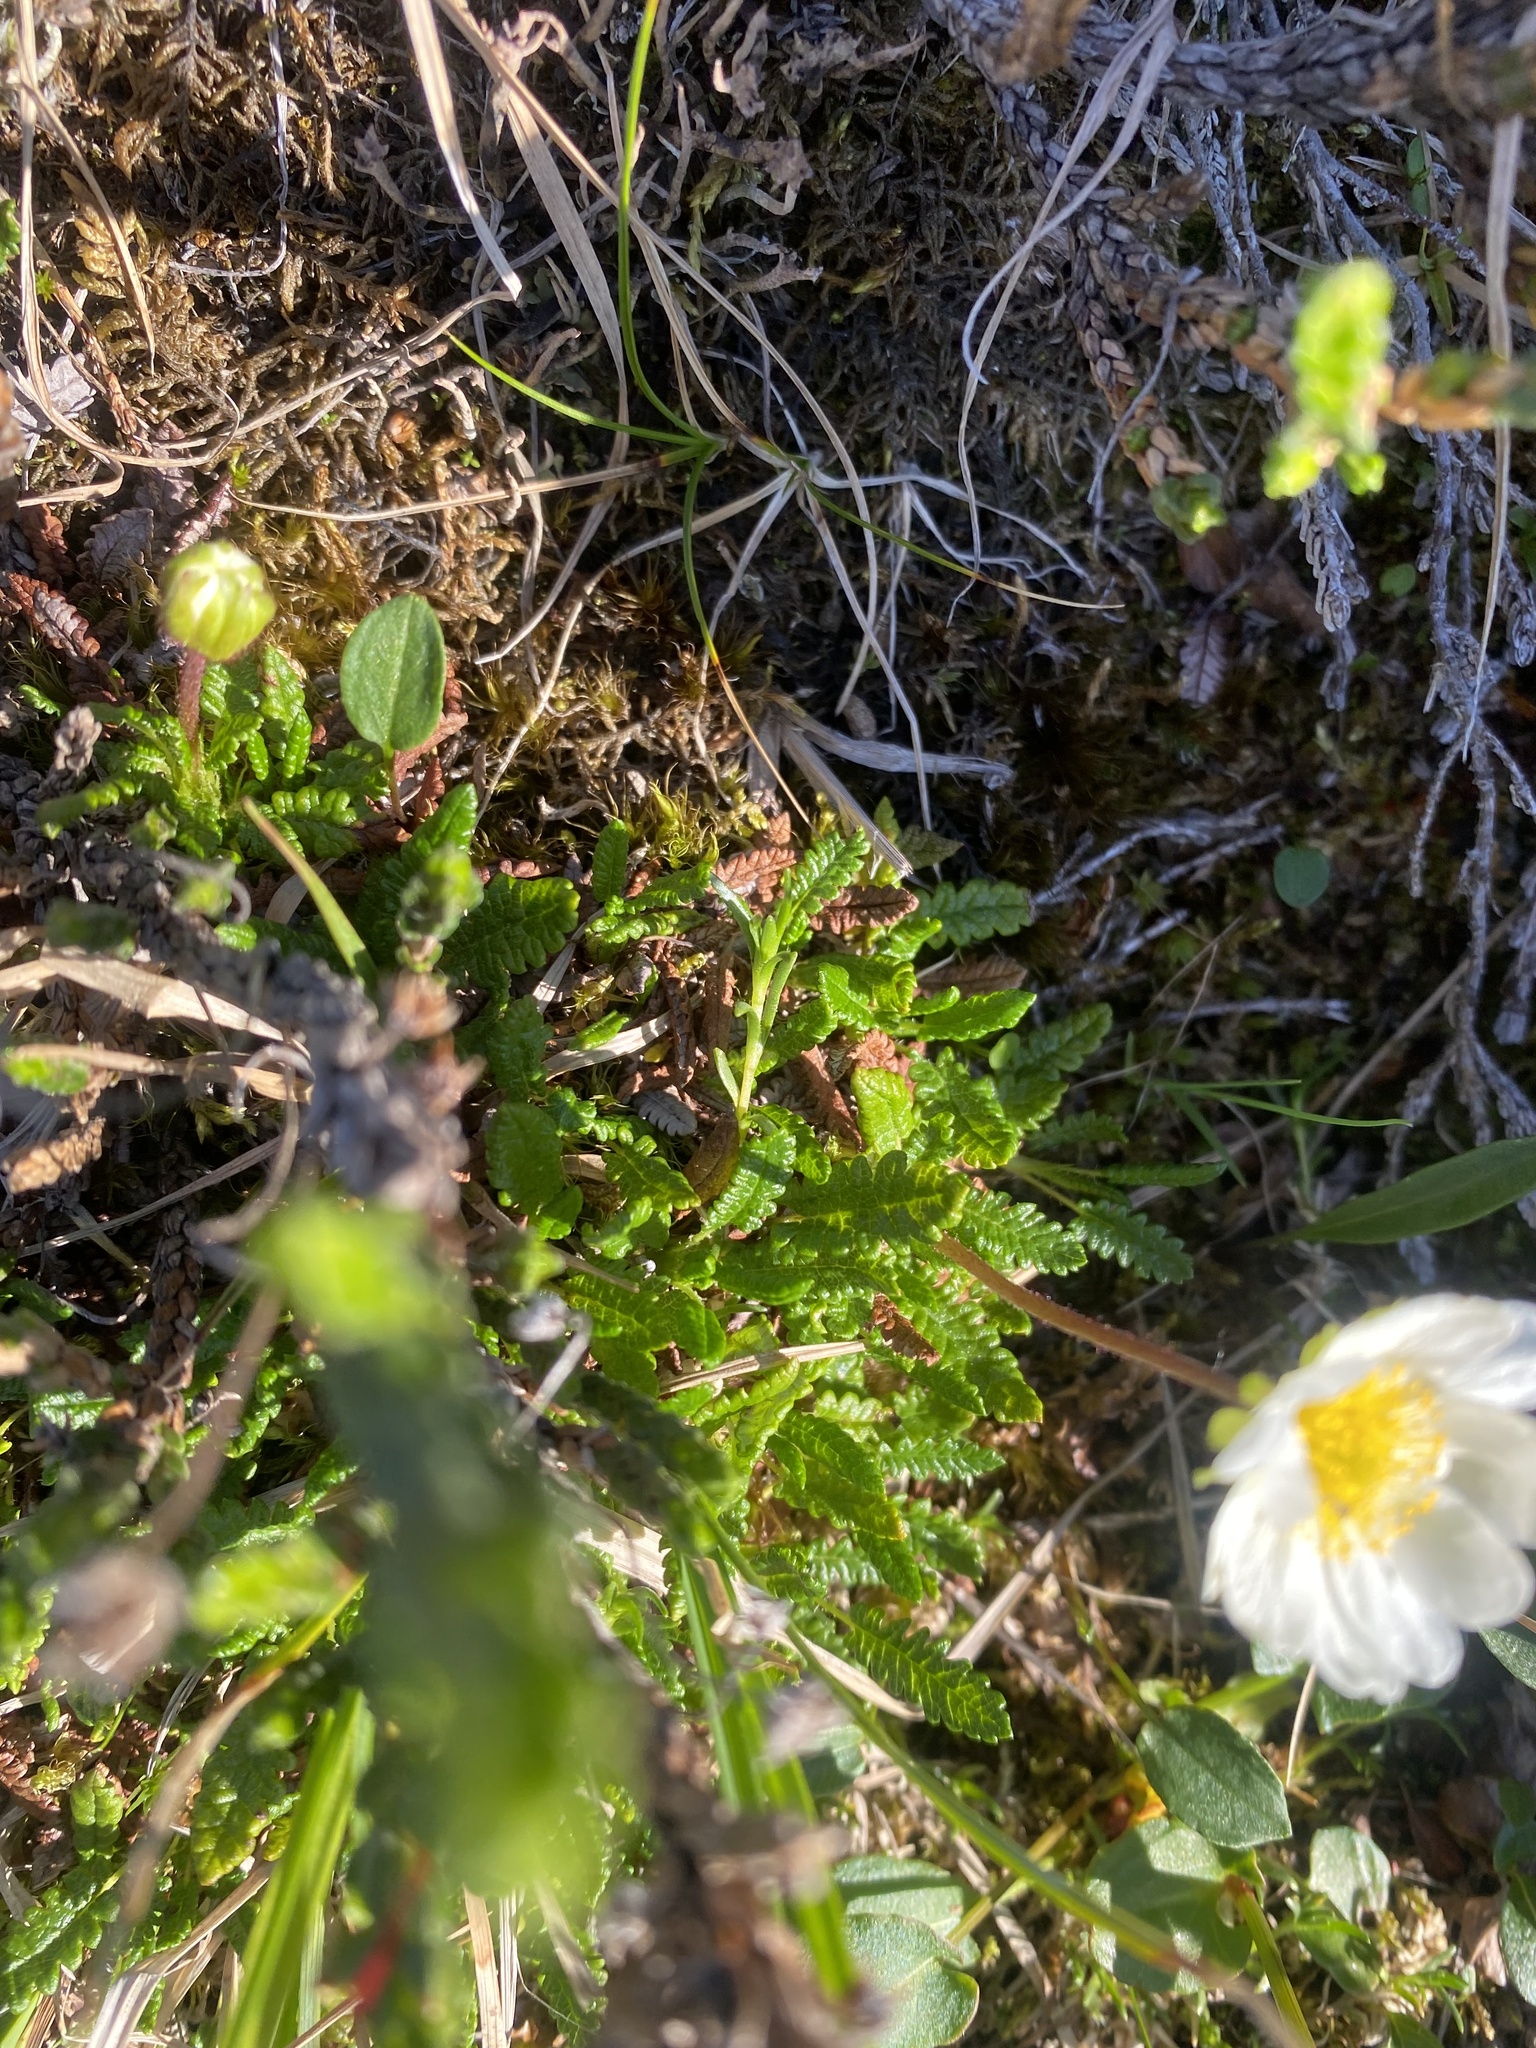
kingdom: Plantae
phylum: Tracheophyta
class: Magnoliopsida
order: Rosales
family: Rosaceae
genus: Dryas
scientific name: Dryas octopetala
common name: Eight-petal mountain-avens
